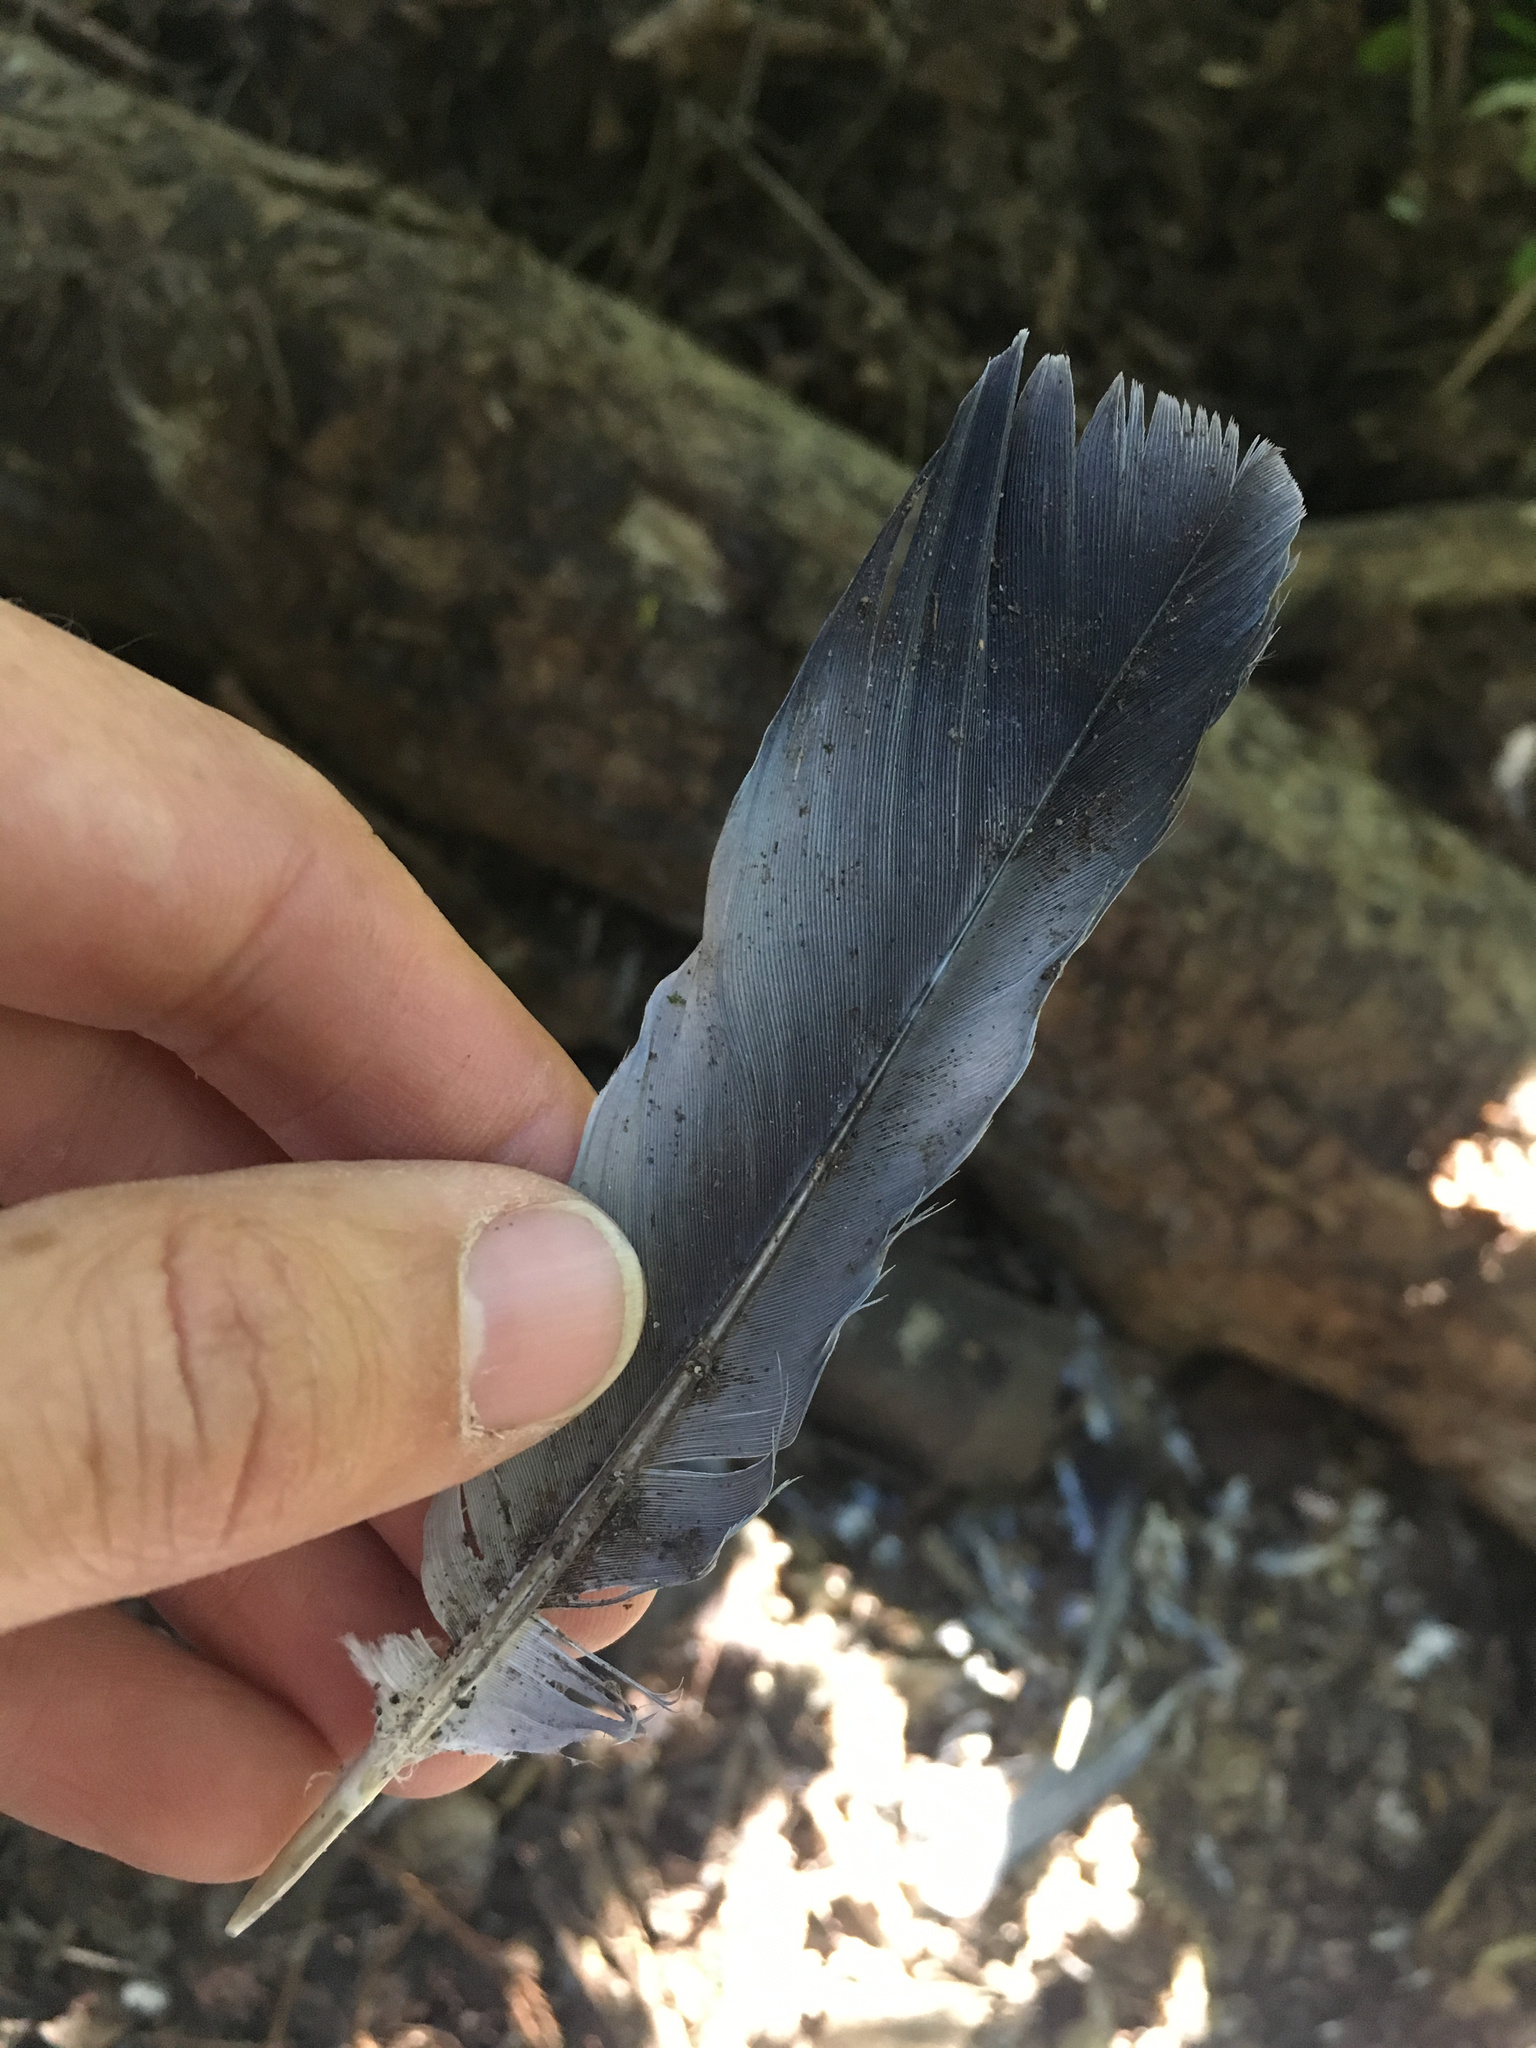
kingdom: Animalia
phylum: Chordata
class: Aves
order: Columbiformes
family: Columbidae
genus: Columba
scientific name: Columba livia
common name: Rock pigeon
